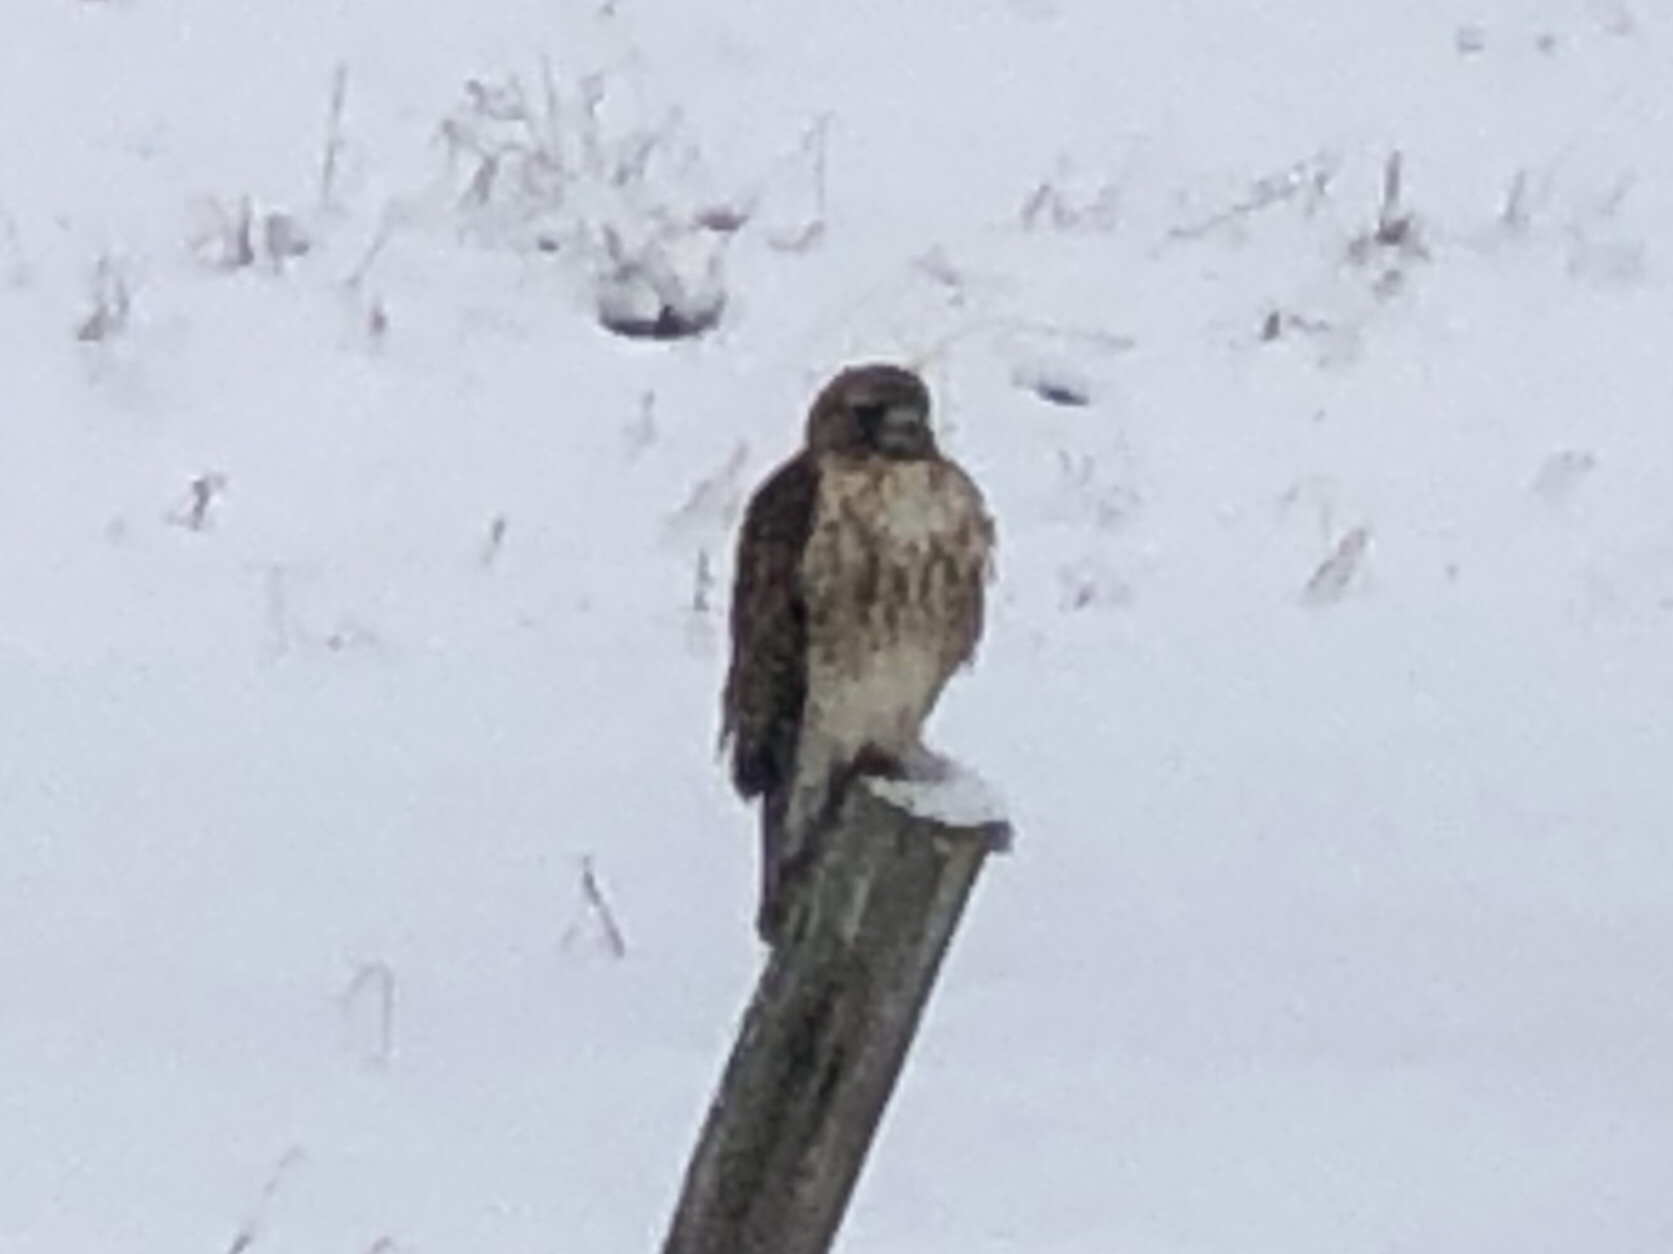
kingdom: Animalia
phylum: Chordata
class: Aves
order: Accipitriformes
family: Accipitridae
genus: Buteo
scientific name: Buteo jamaicensis
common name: Red-tailed hawk
